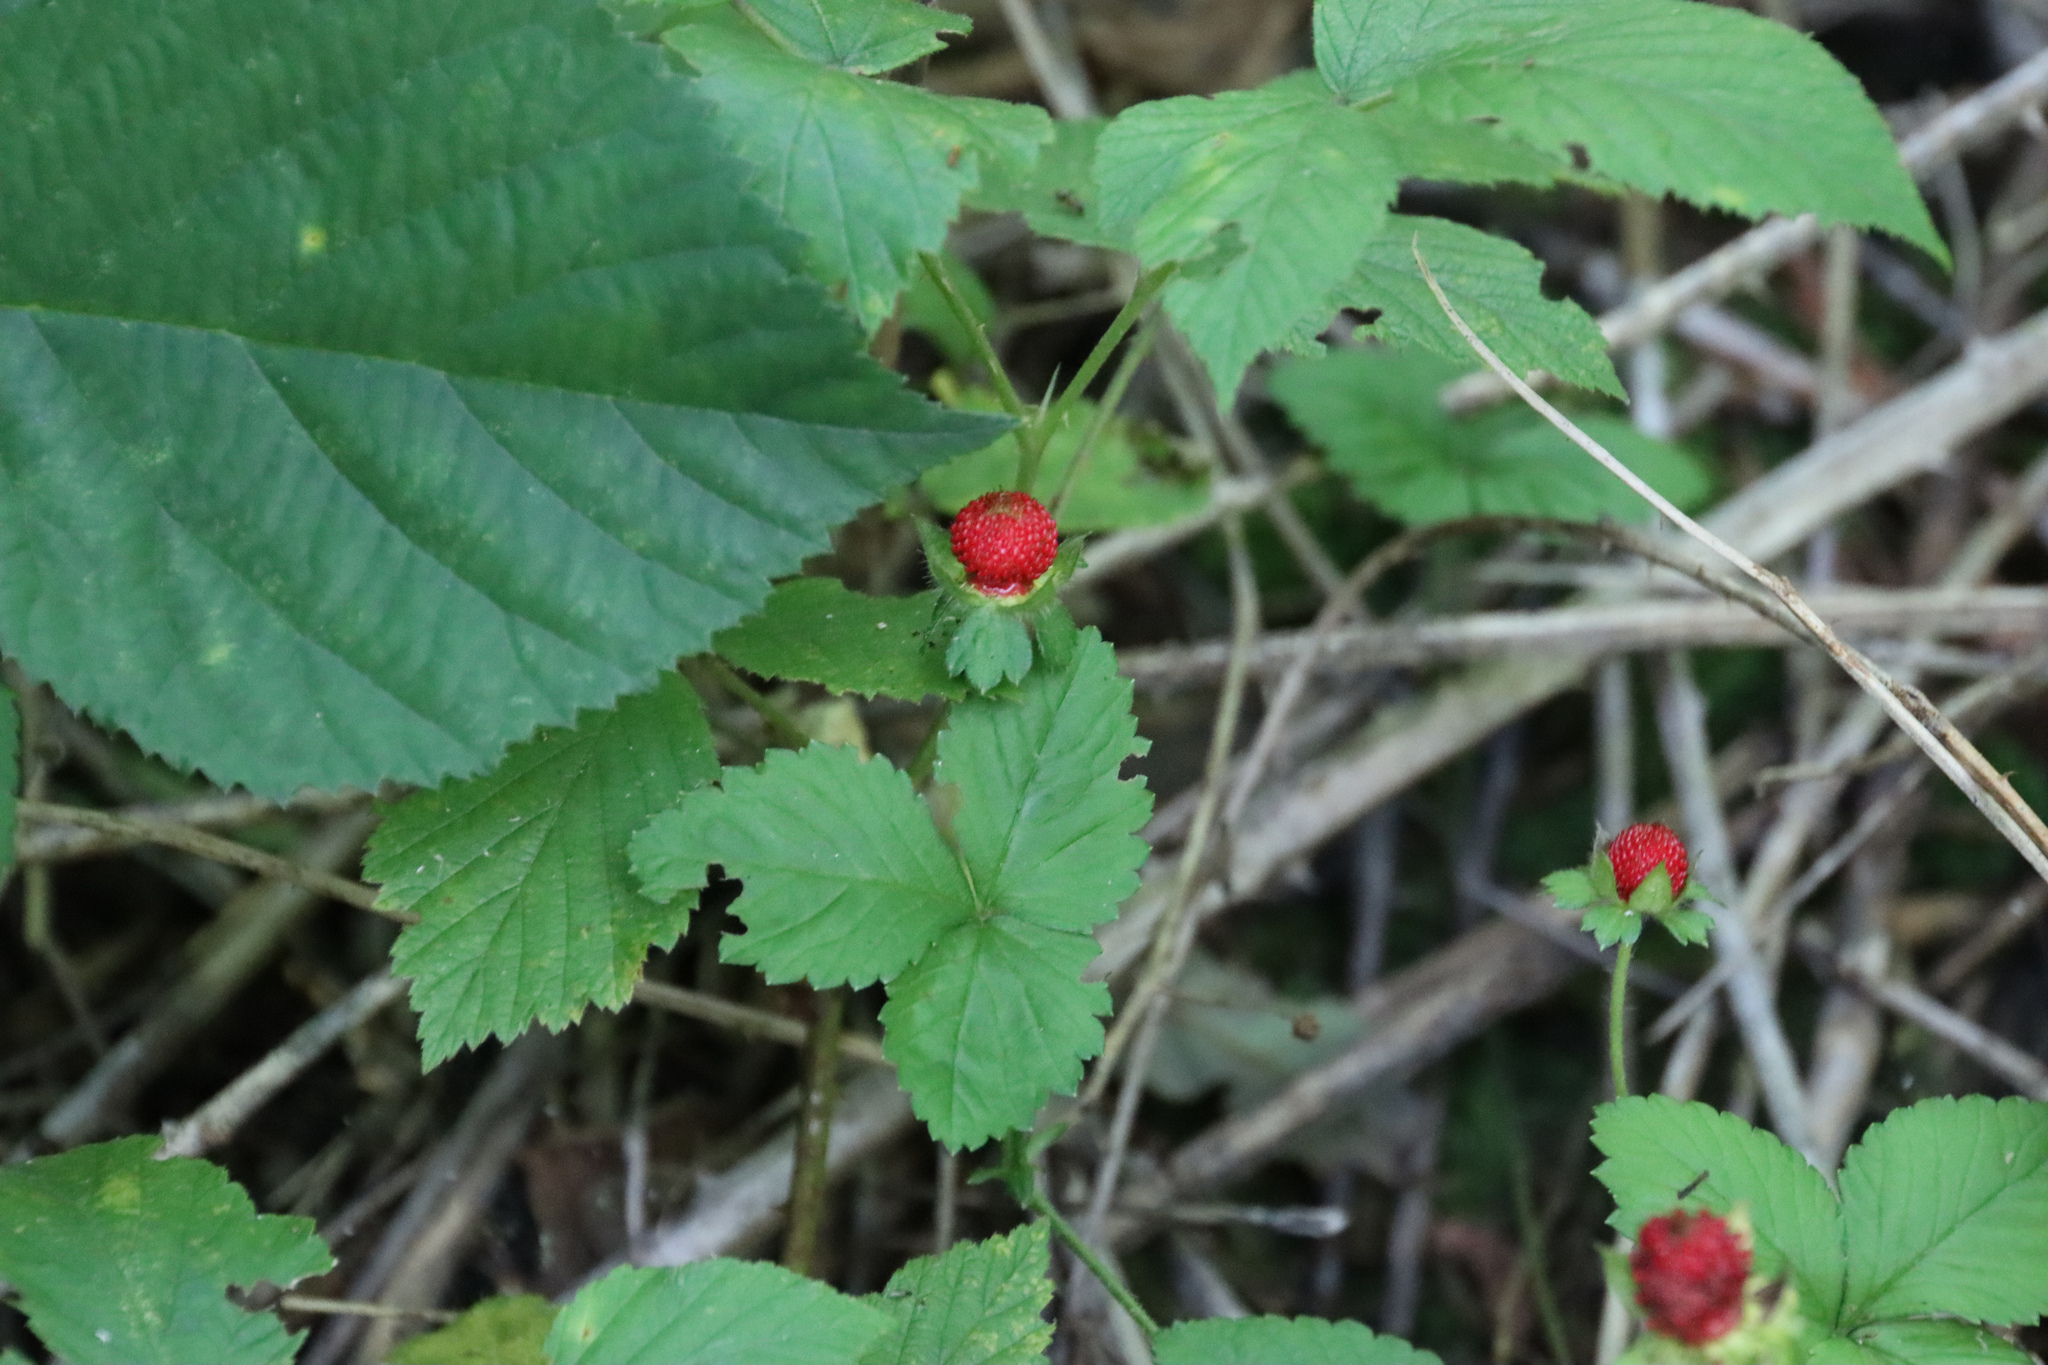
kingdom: Plantae
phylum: Tracheophyta
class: Magnoliopsida
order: Rosales
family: Rosaceae
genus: Potentilla
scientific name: Potentilla indica
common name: Yellow-flowered strawberry
